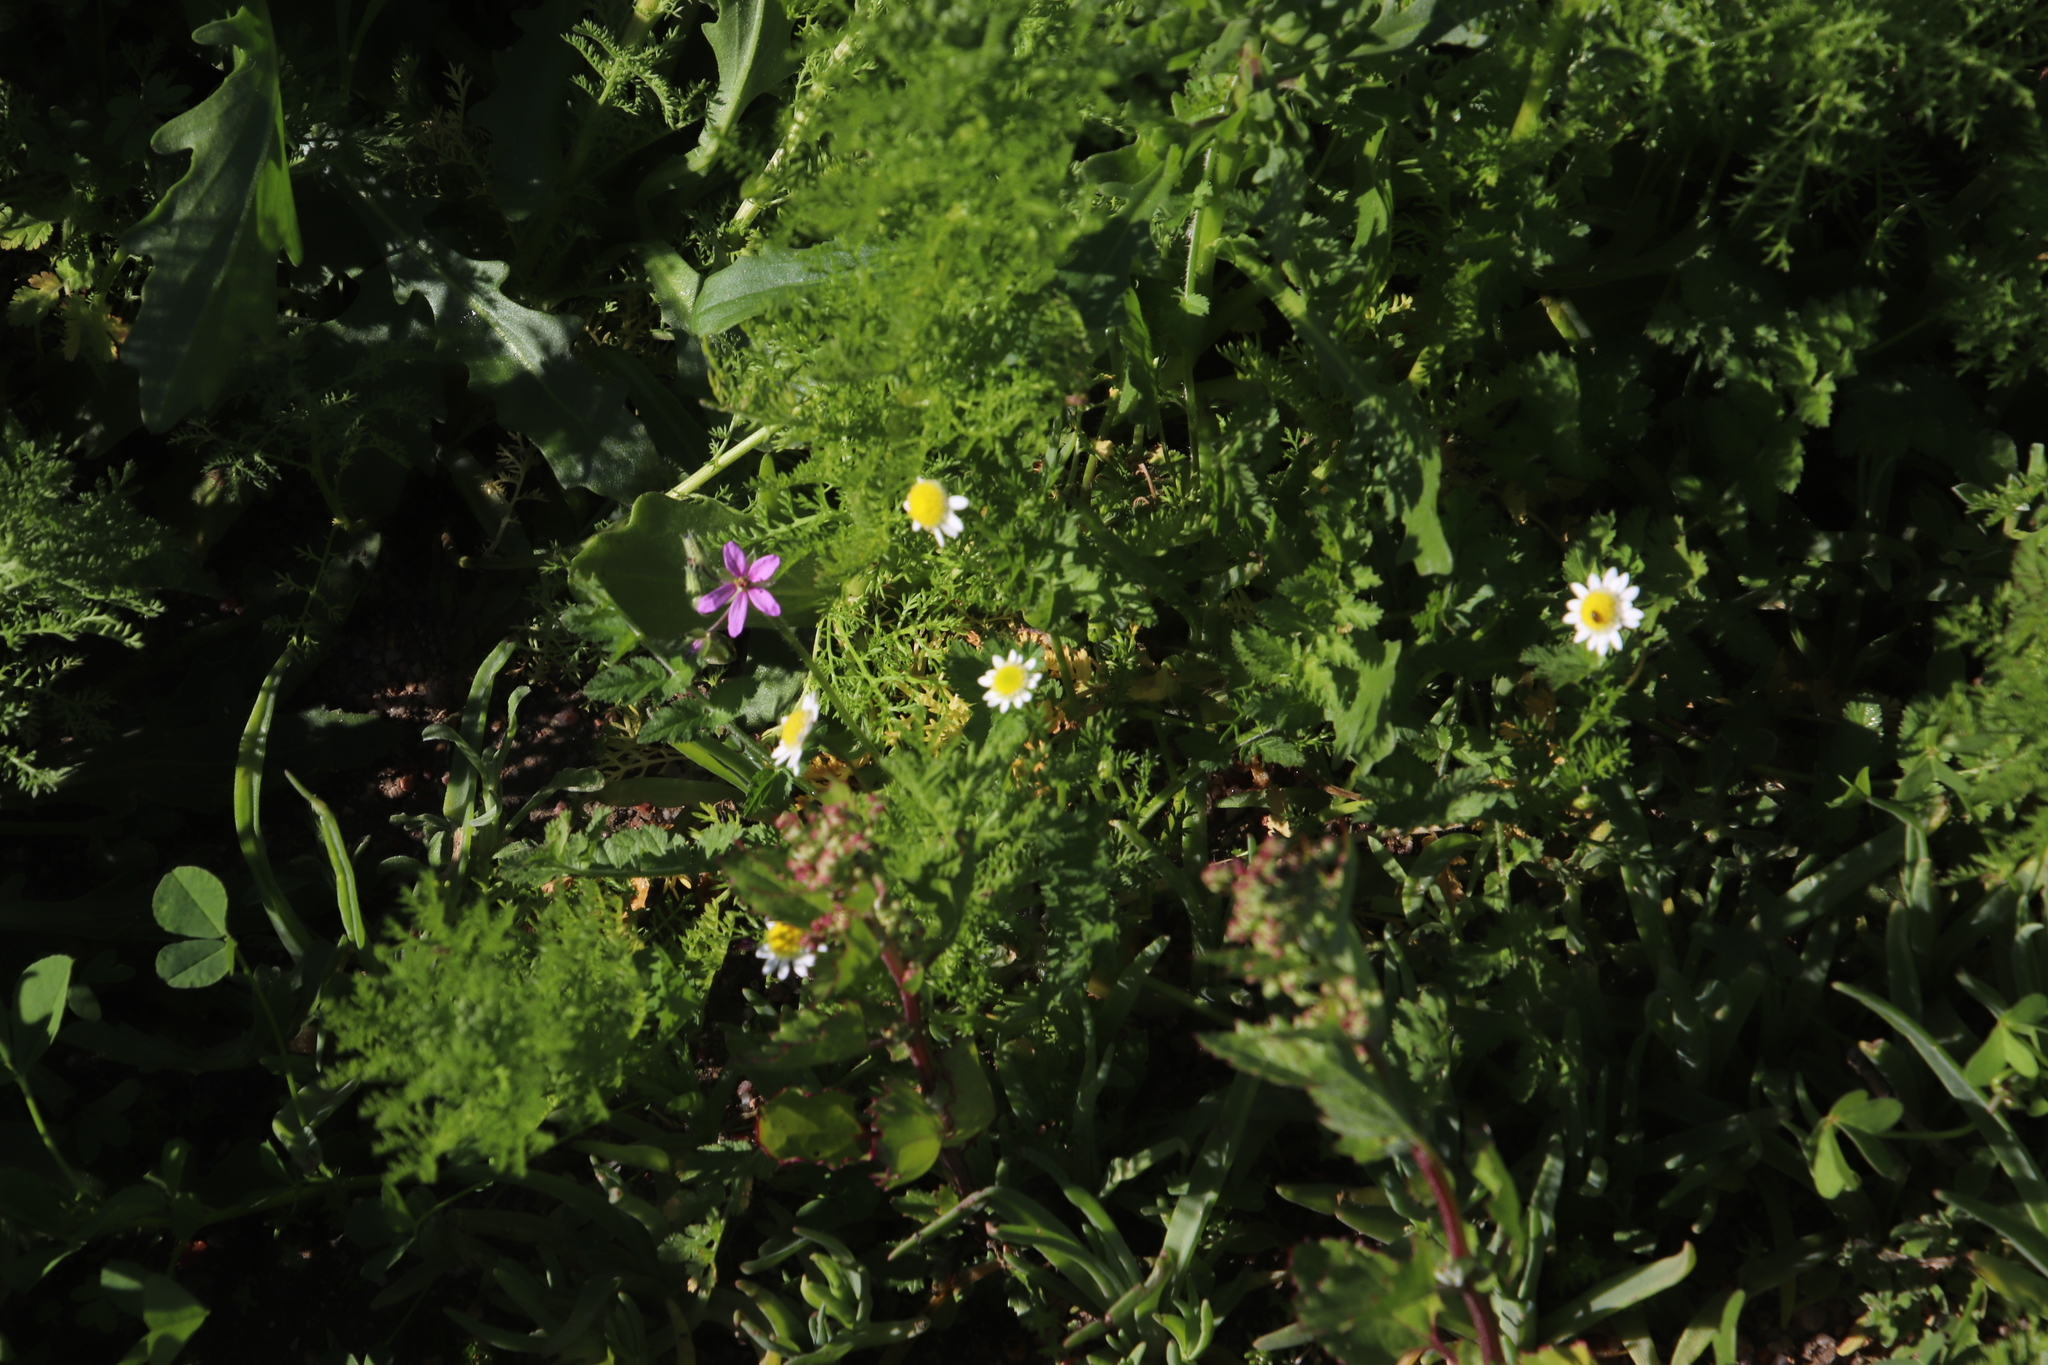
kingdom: Plantae
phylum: Tracheophyta
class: Magnoliopsida
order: Asterales
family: Asteraceae
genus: Cotula
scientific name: Cotula turbinata
